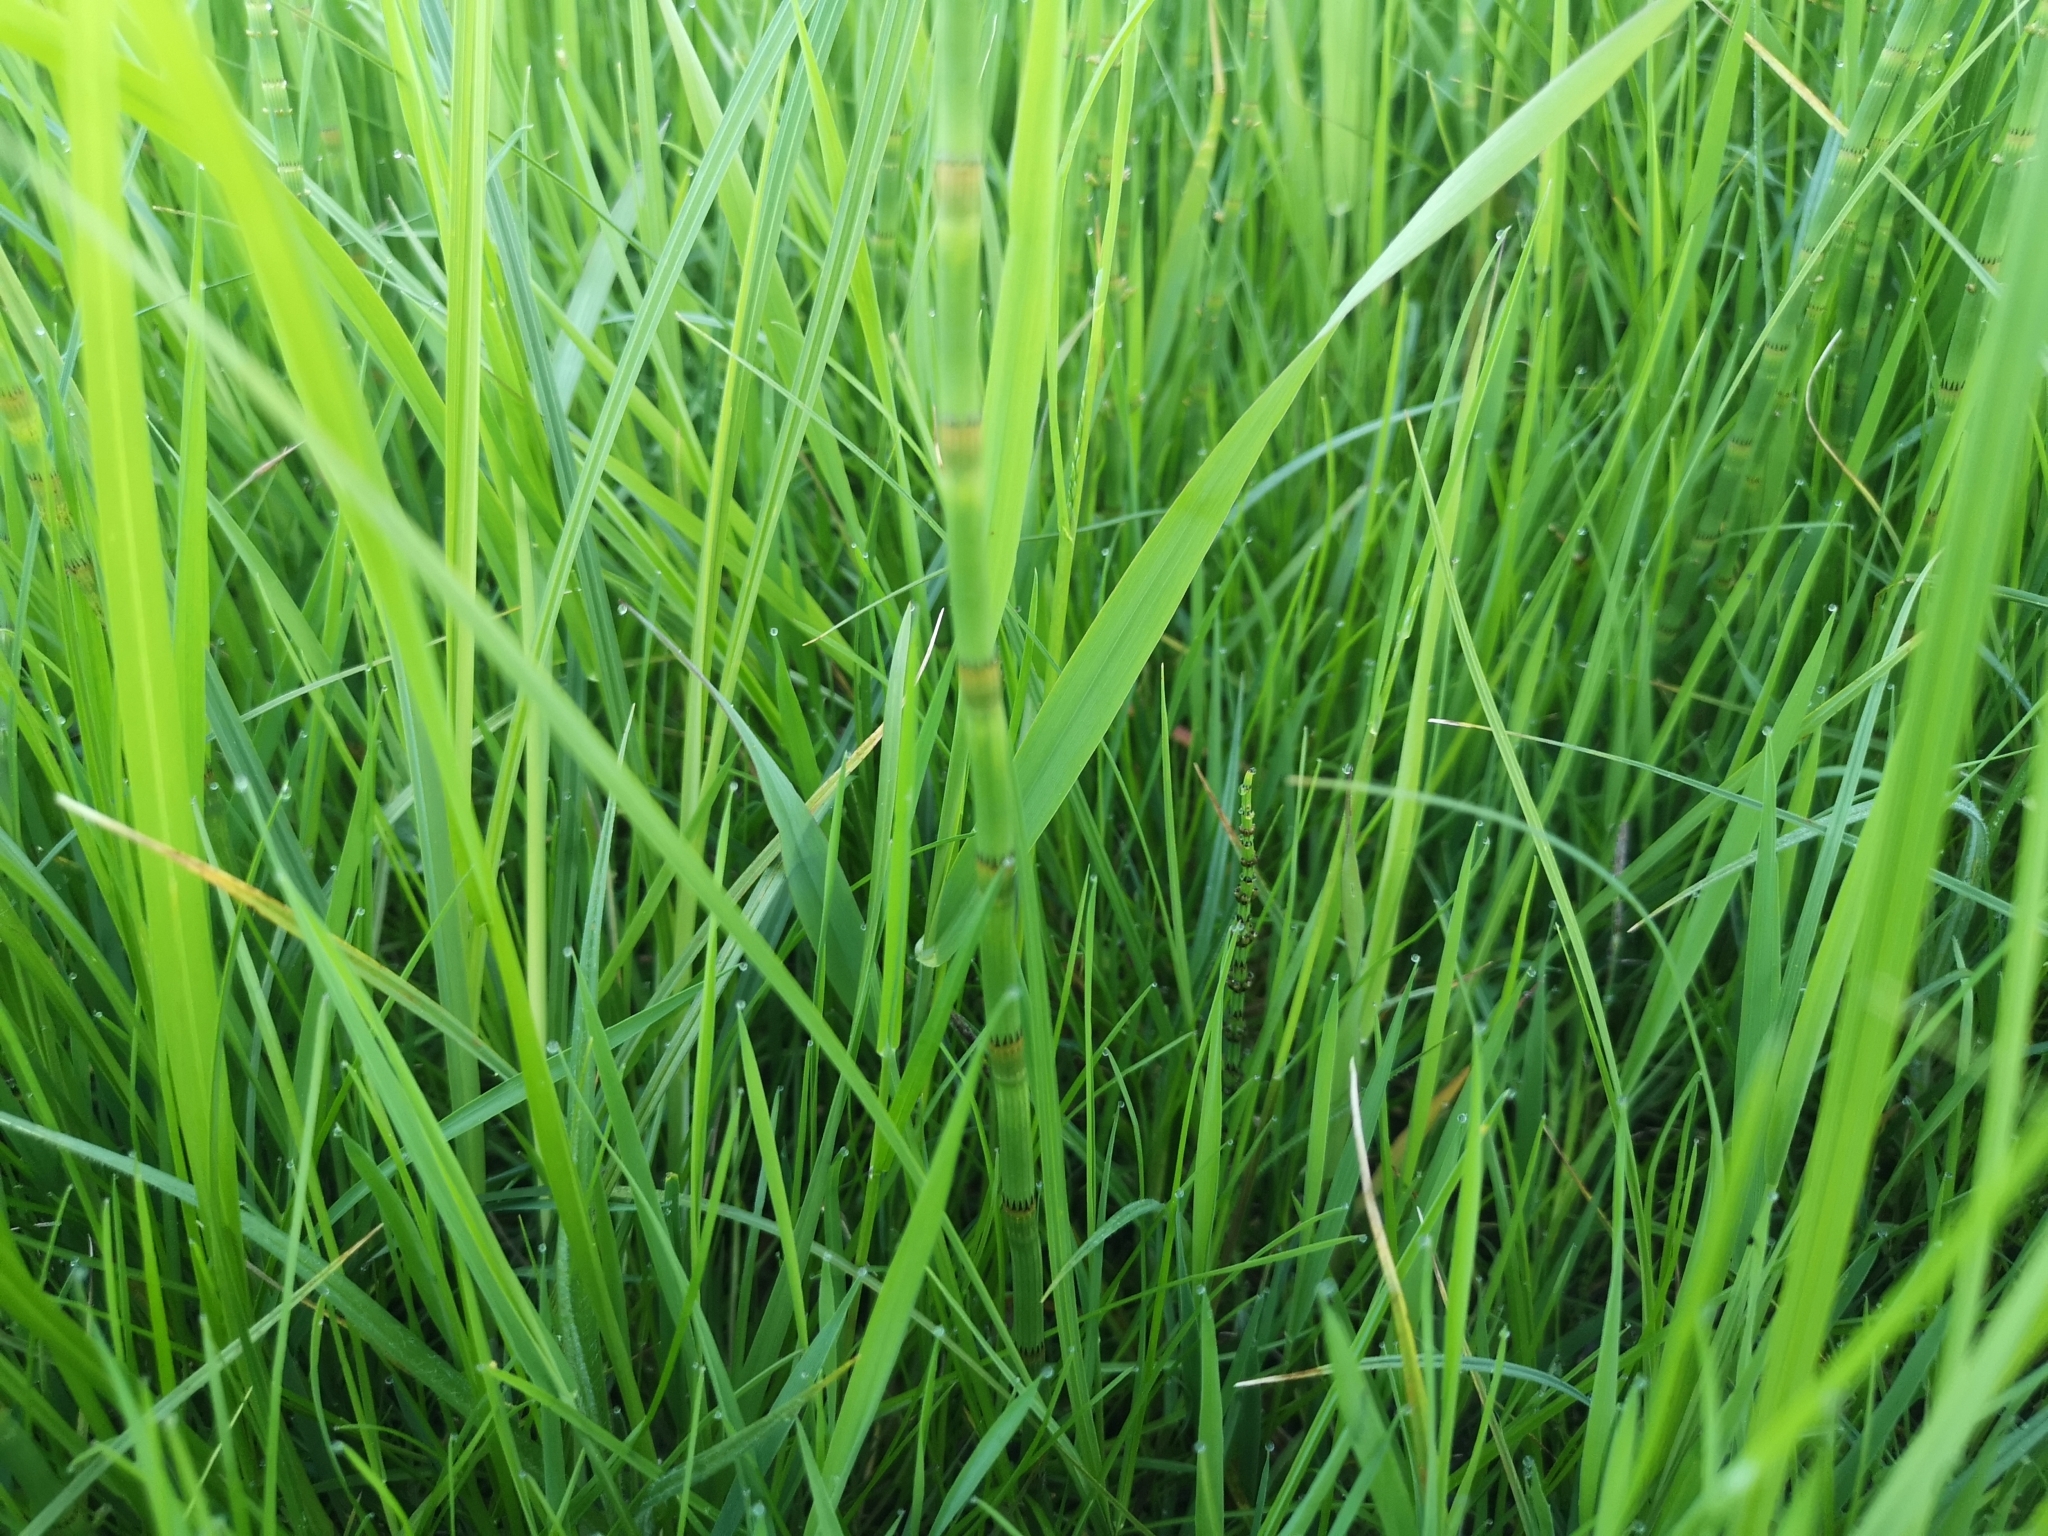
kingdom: Plantae
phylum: Tracheophyta
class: Polypodiopsida
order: Equisetales
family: Equisetaceae
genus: Equisetum
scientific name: Equisetum fluviatile
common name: Water horsetail
